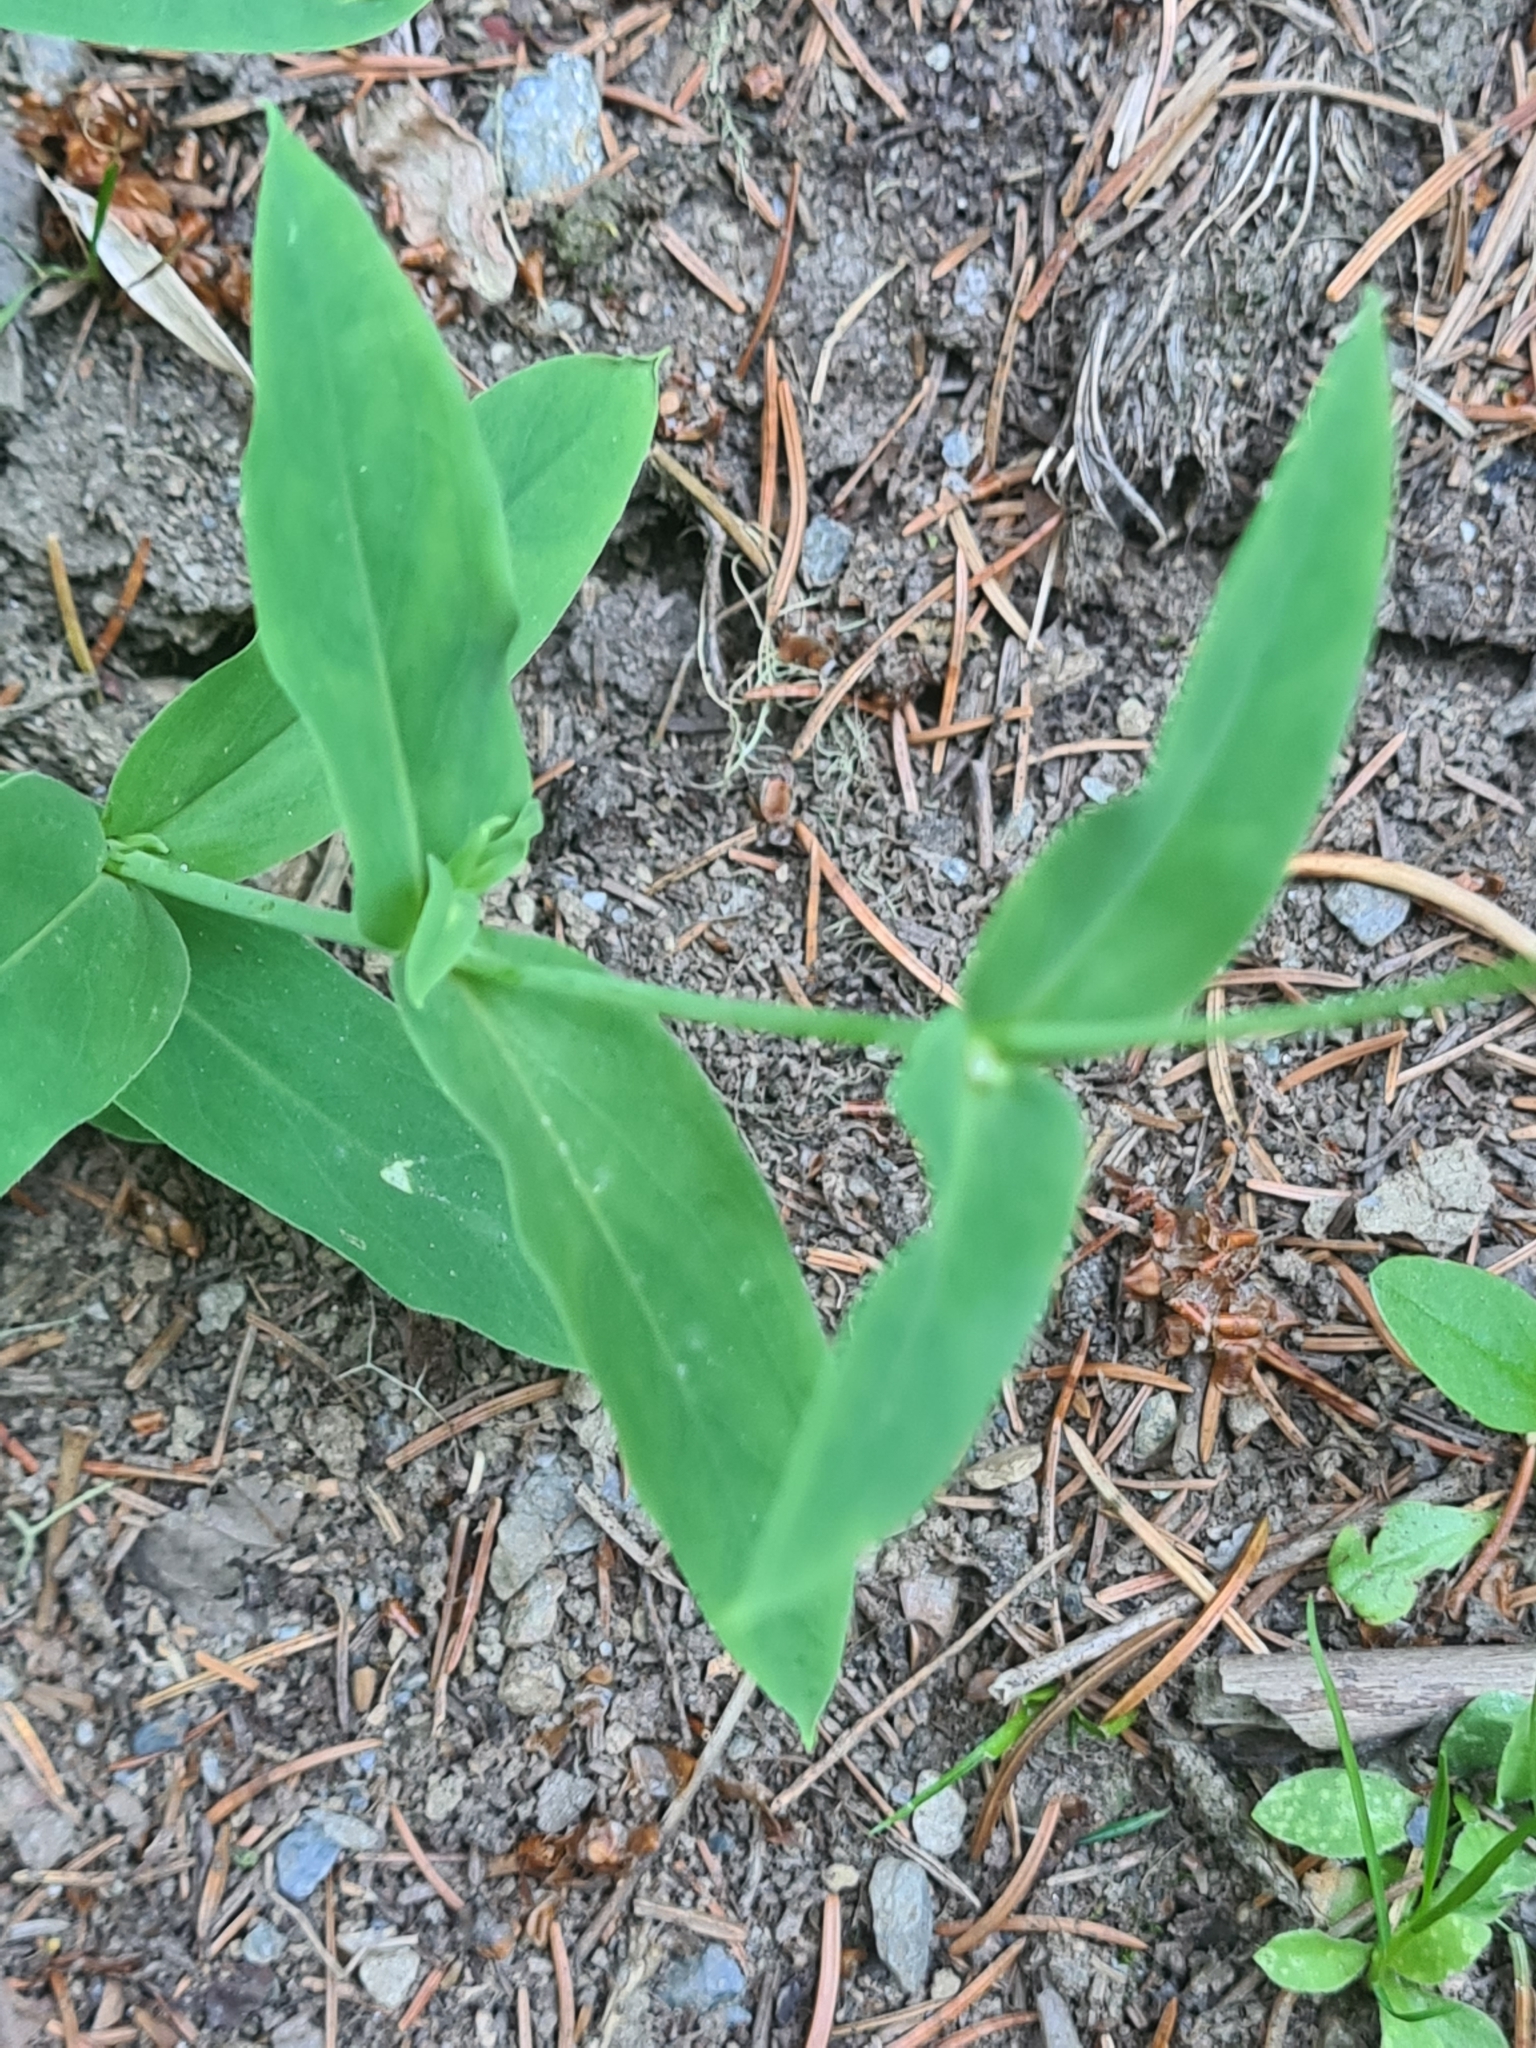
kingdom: Plantae
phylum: Tracheophyta
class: Magnoliopsida
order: Caryophyllales
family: Caryophyllaceae
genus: Silene
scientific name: Silene vulgaris
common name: Bladder campion
